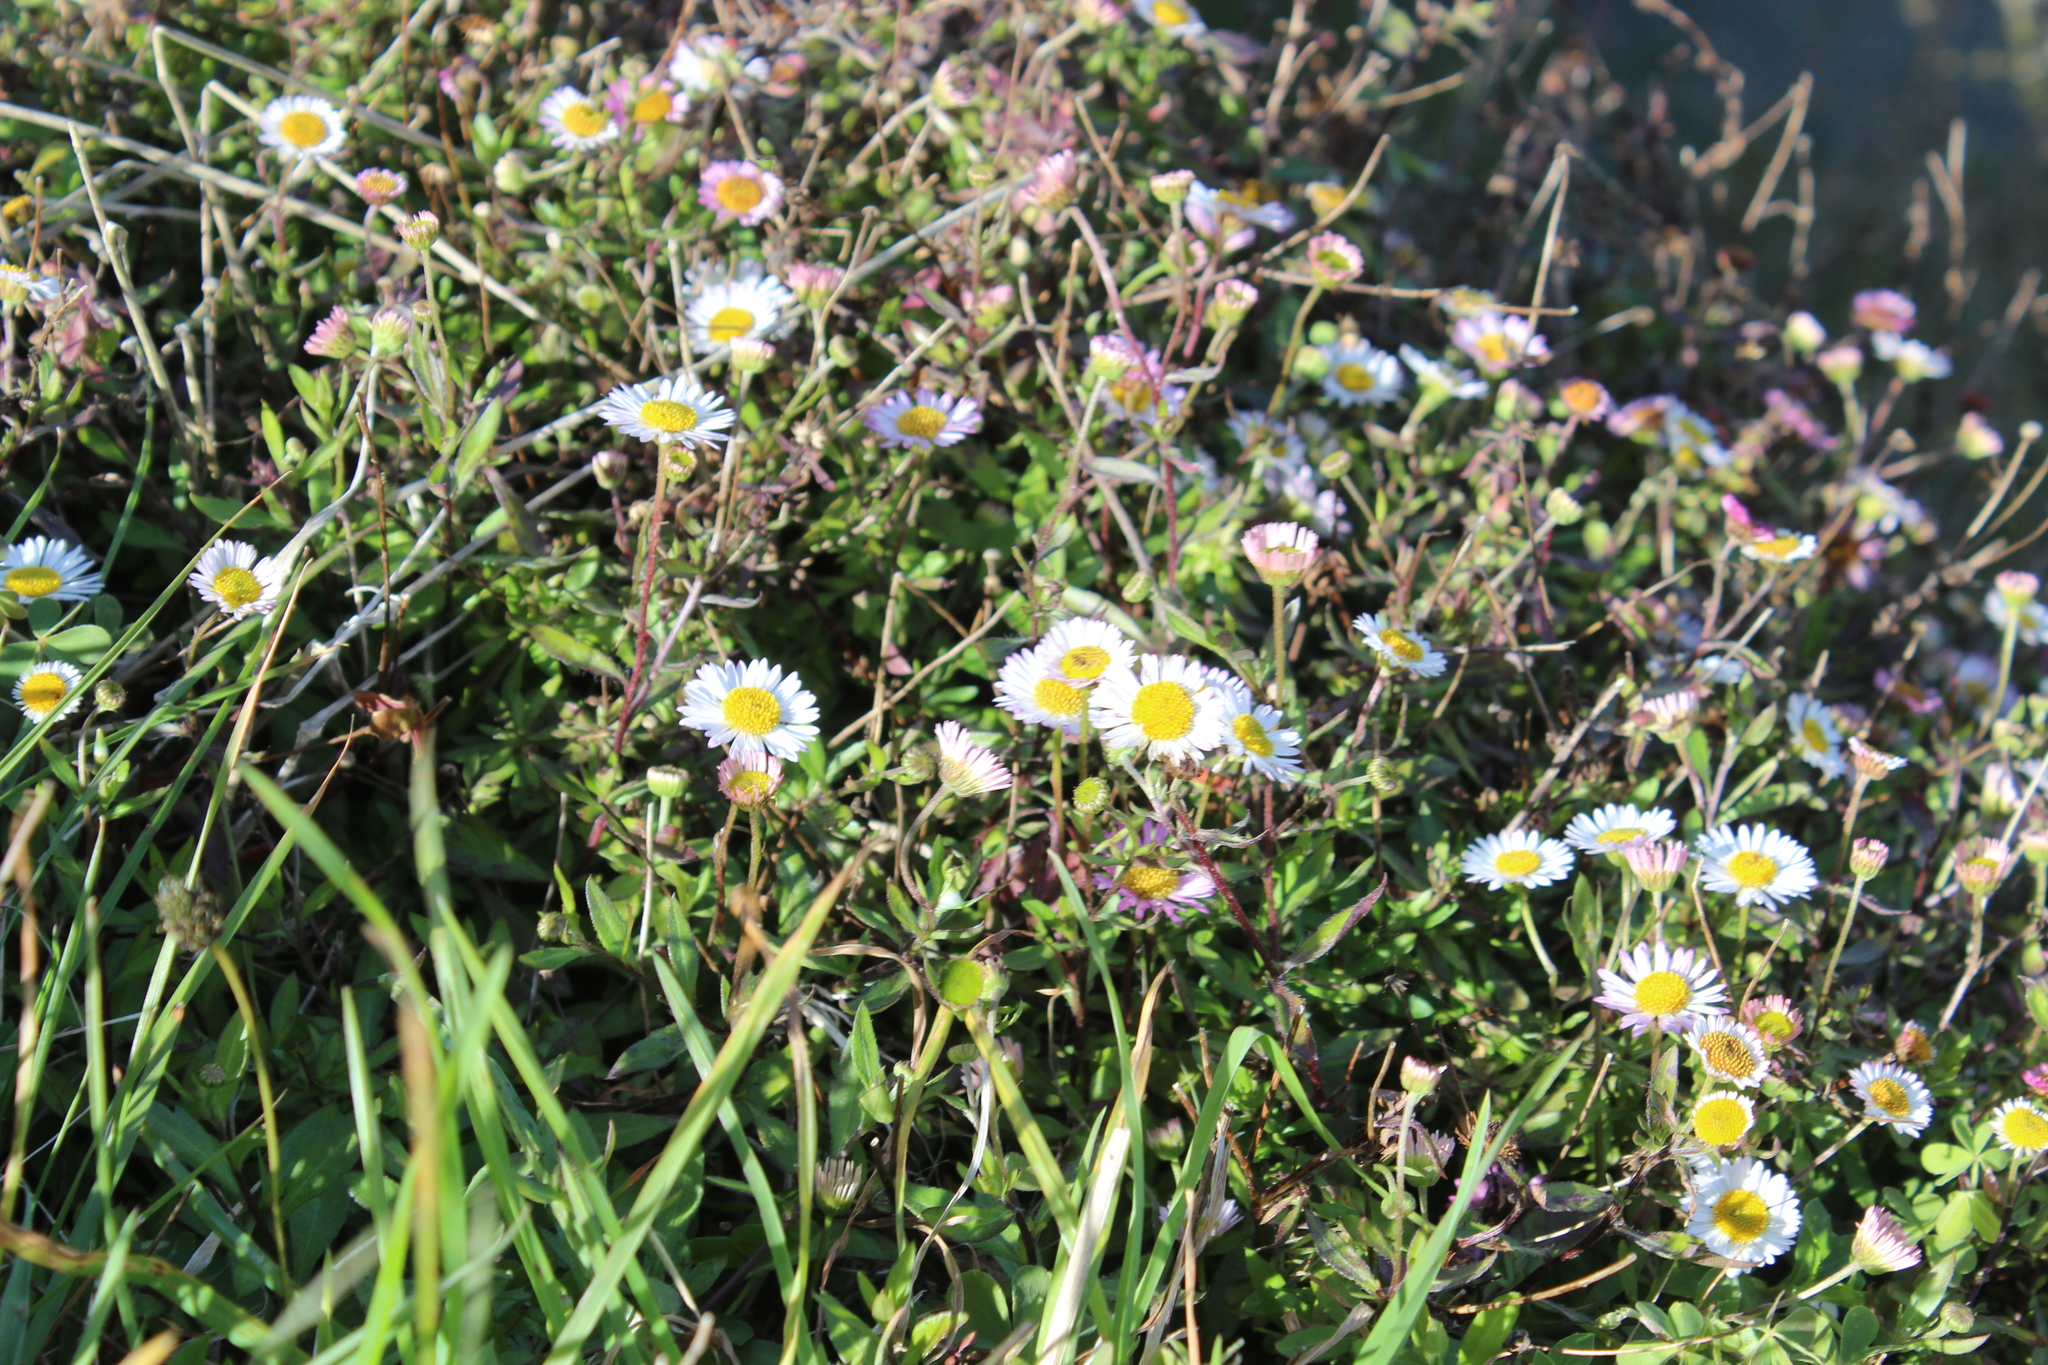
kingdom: Plantae
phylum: Tracheophyta
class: Magnoliopsida
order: Asterales
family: Asteraceae
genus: Erigeron
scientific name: Erigeron karvinskianus
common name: Mexican fleabane
